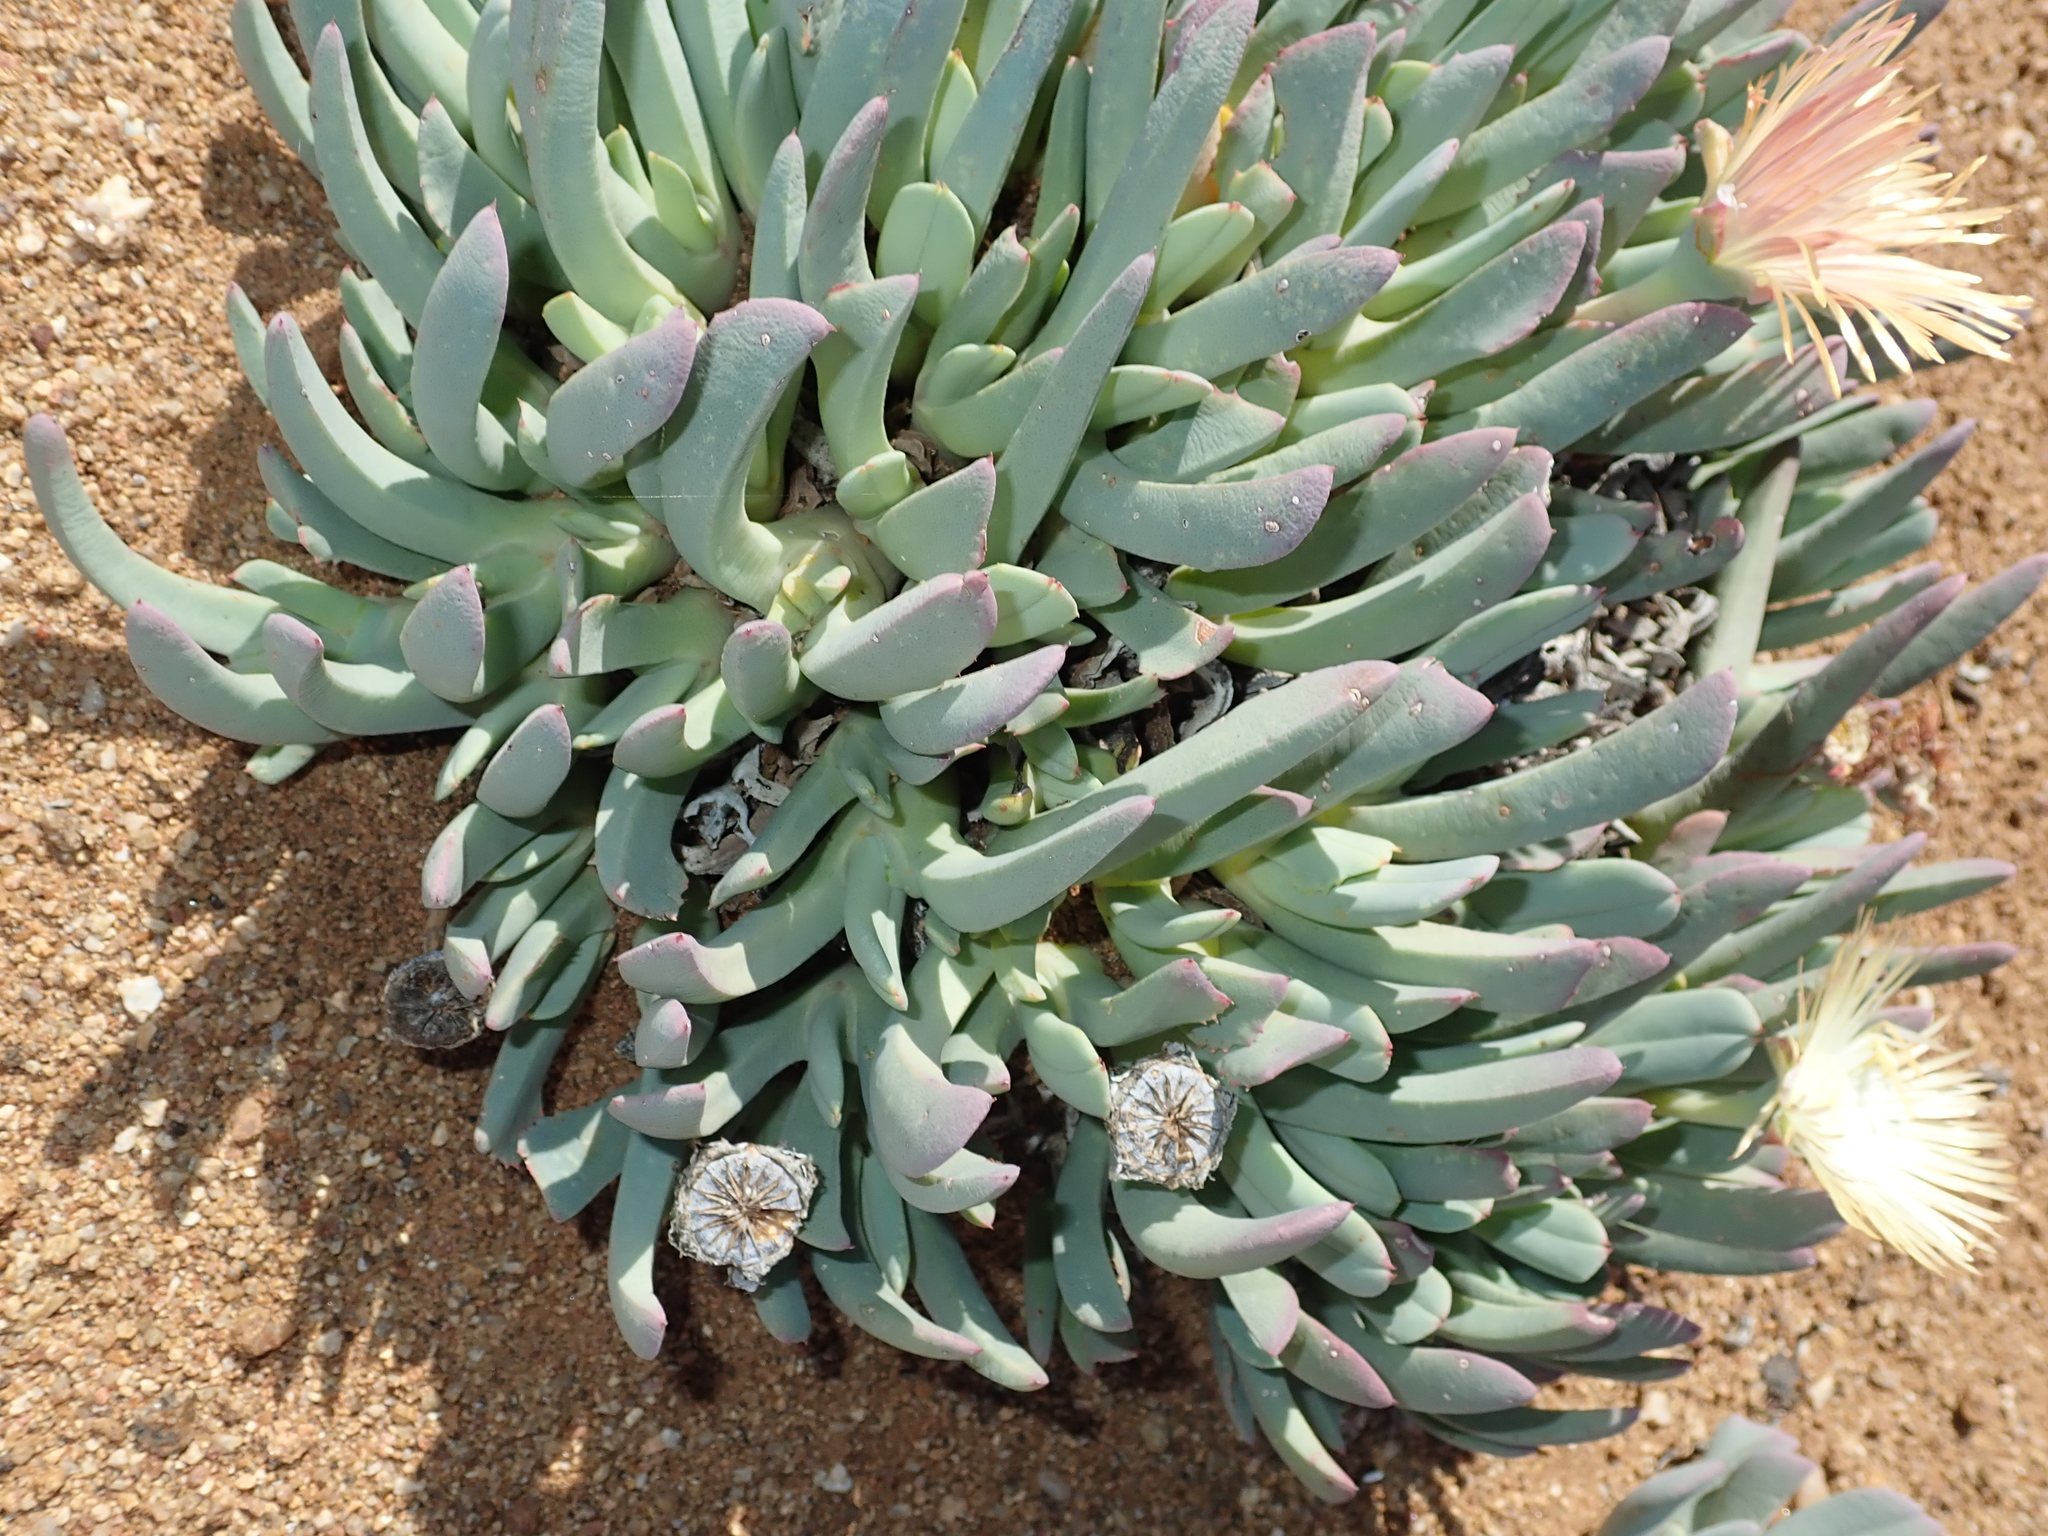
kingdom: Plantae
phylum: Tracheophyta
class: Magnoliopsida
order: Caryophyllales
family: Aizoaceae
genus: Cheiridopsis
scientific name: Cheiridopsis denticulata
